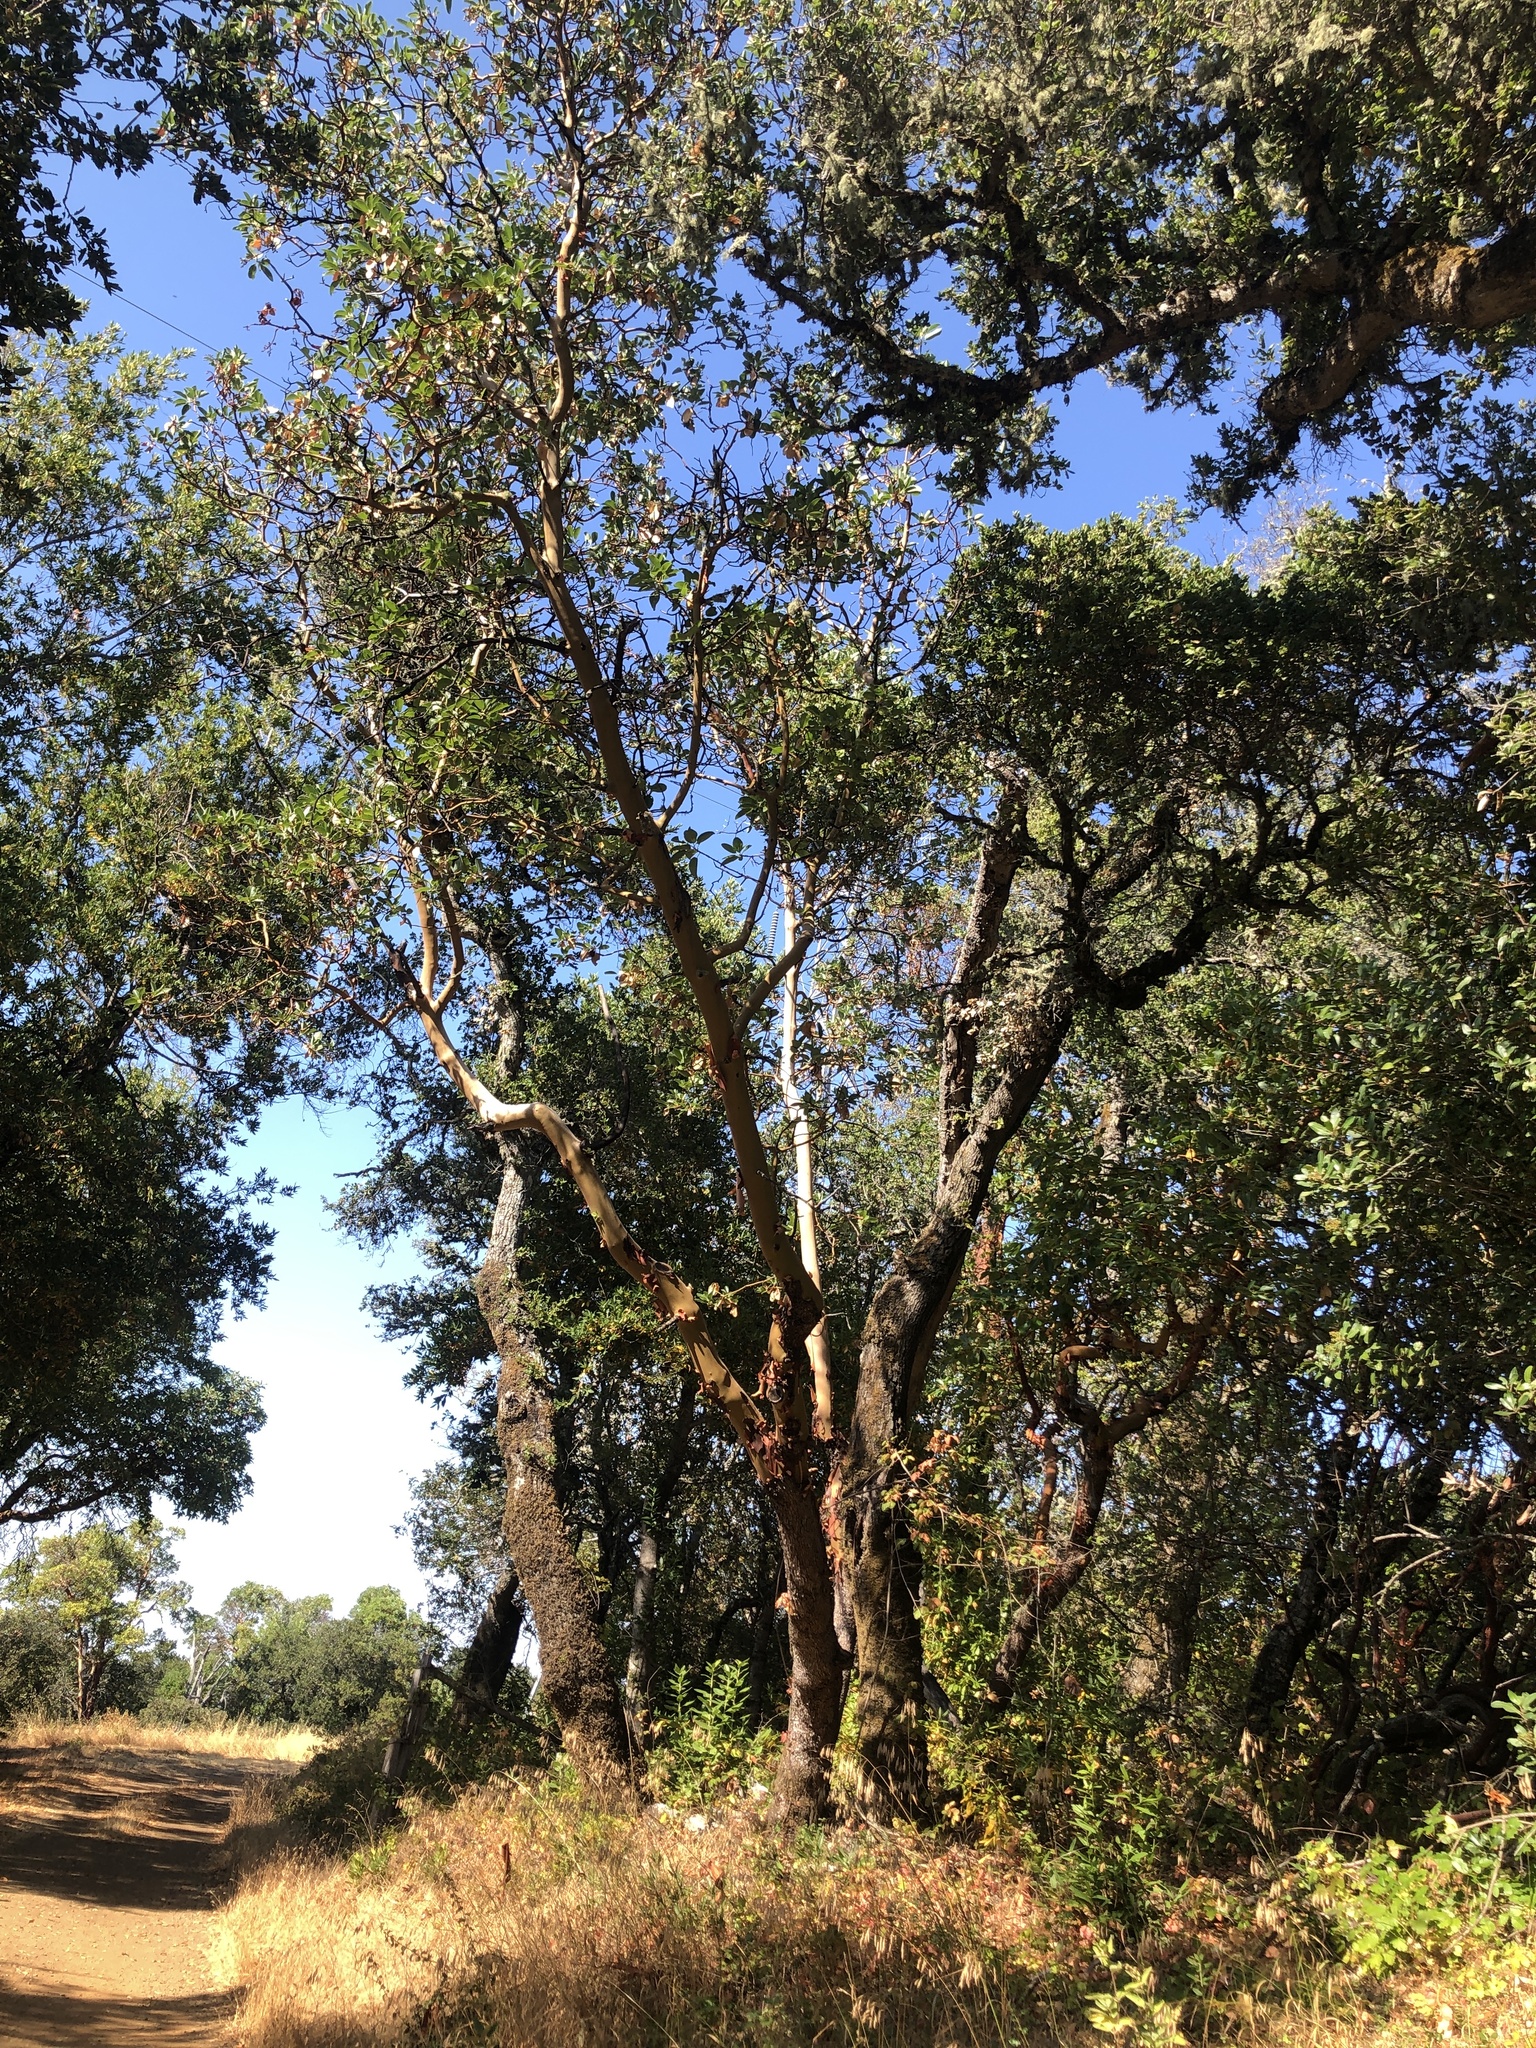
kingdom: Plantae
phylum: Tracheophyta
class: Magnoliopsida
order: Ericales
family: Ericaceae
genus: Arbutus
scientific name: Arbutus menziesii
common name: Pacific madrone
